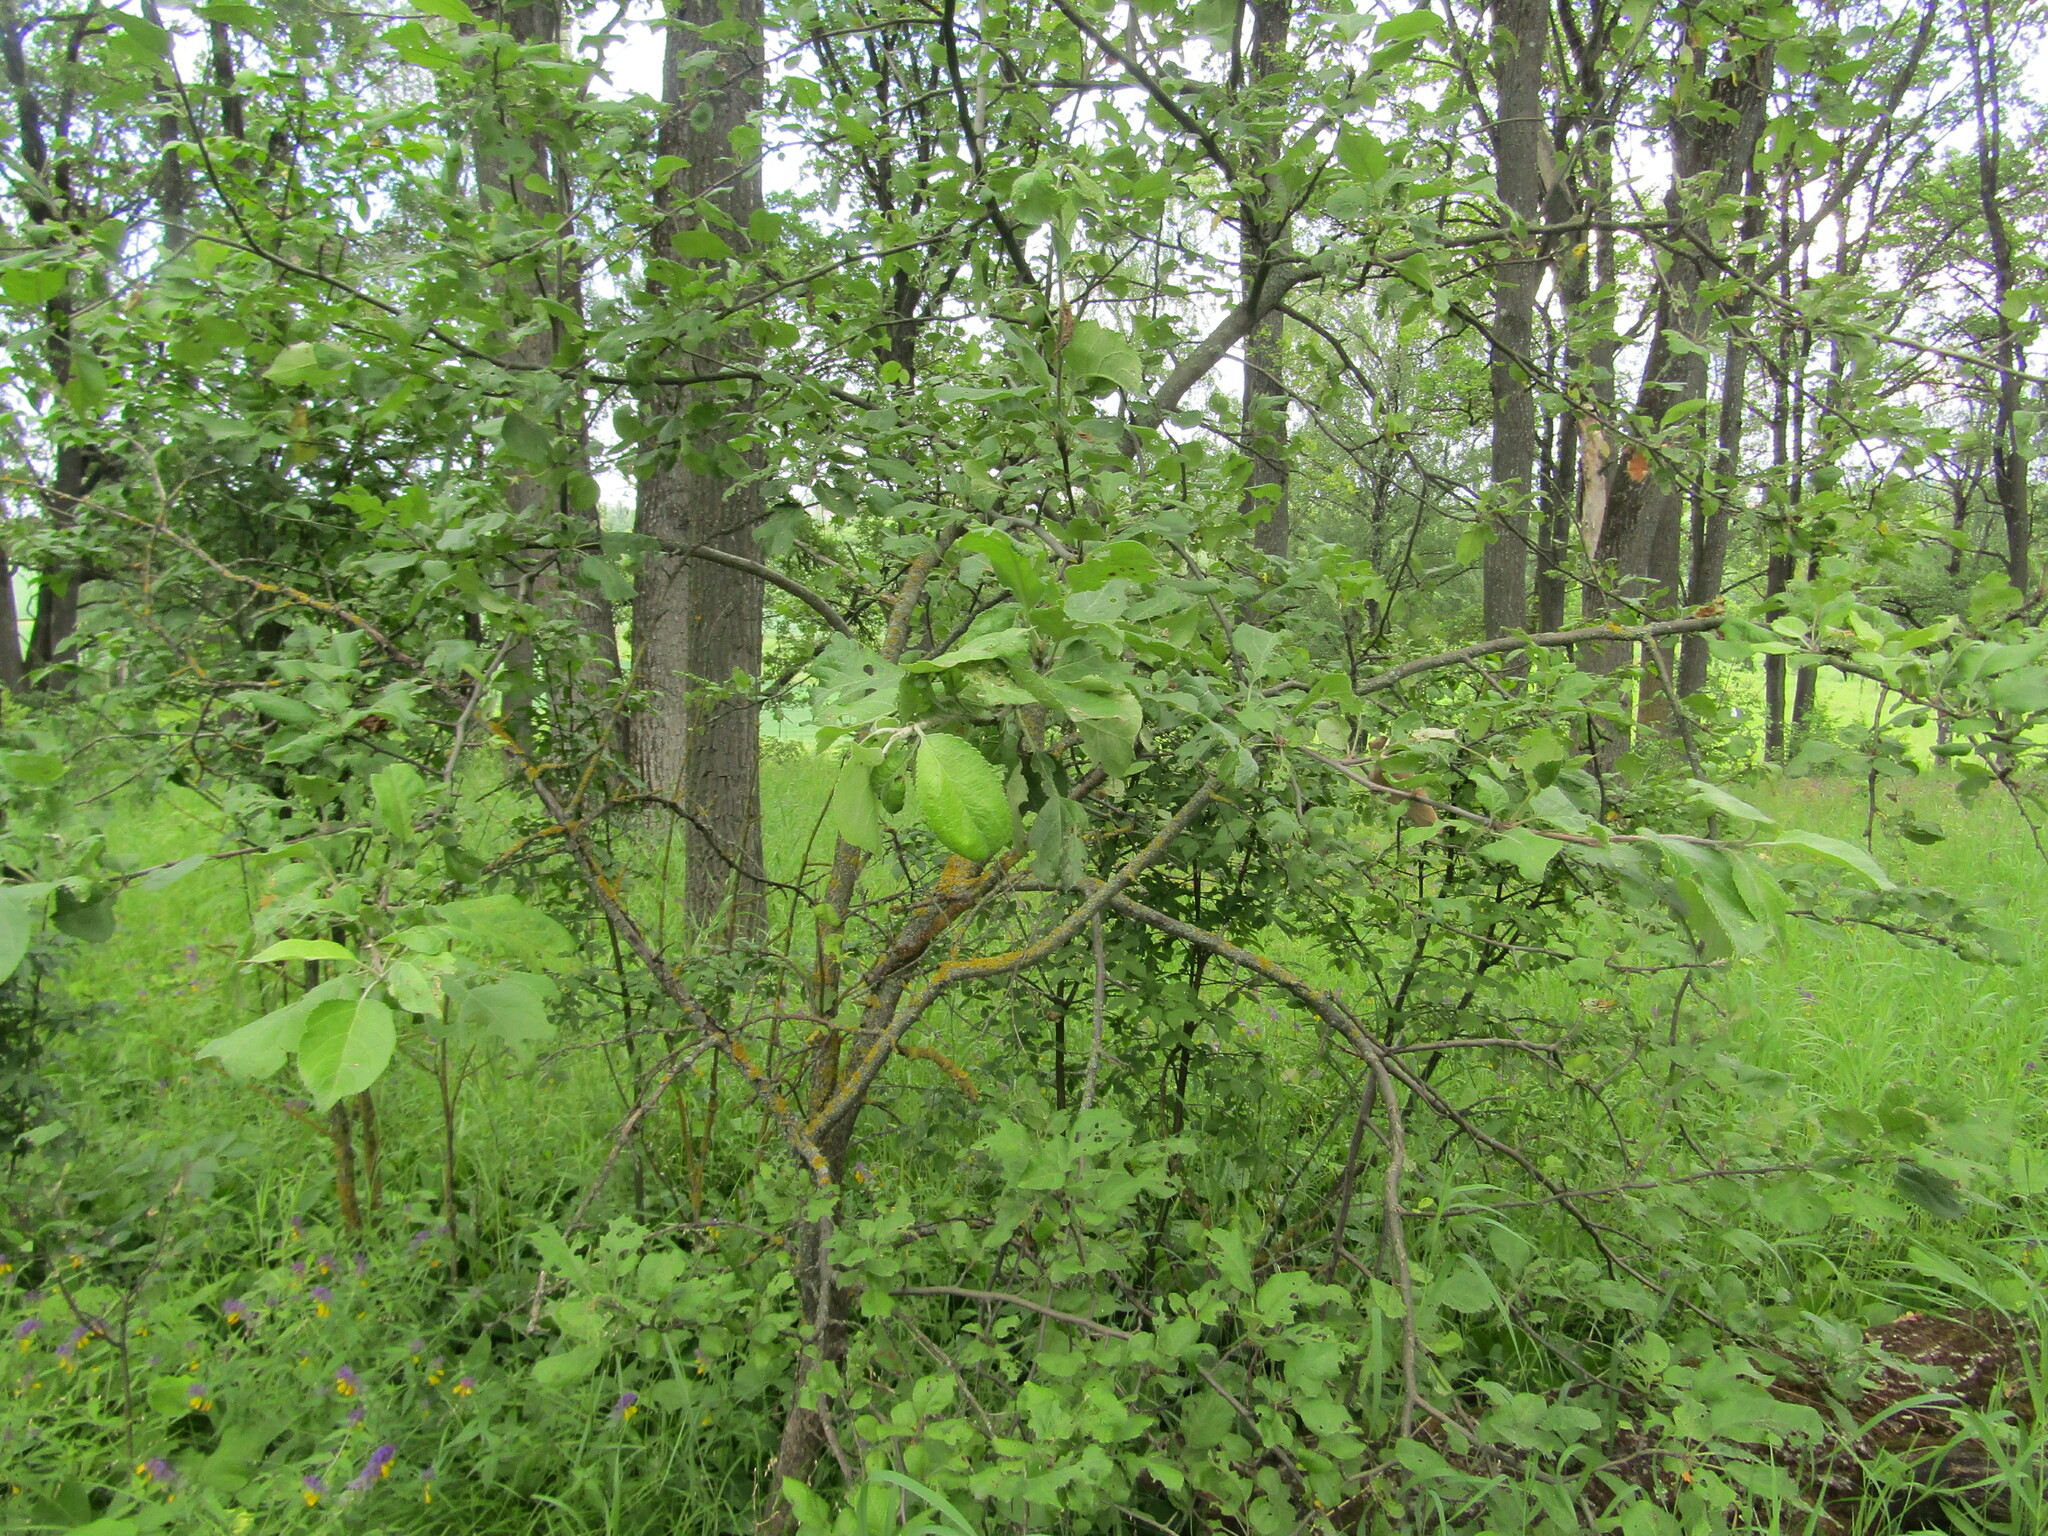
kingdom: Plantae
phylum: Tracheophyta
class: Magnoliopsida
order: Rosales
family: Rosaceae
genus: Malus
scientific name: Malus domestica
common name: Apple
